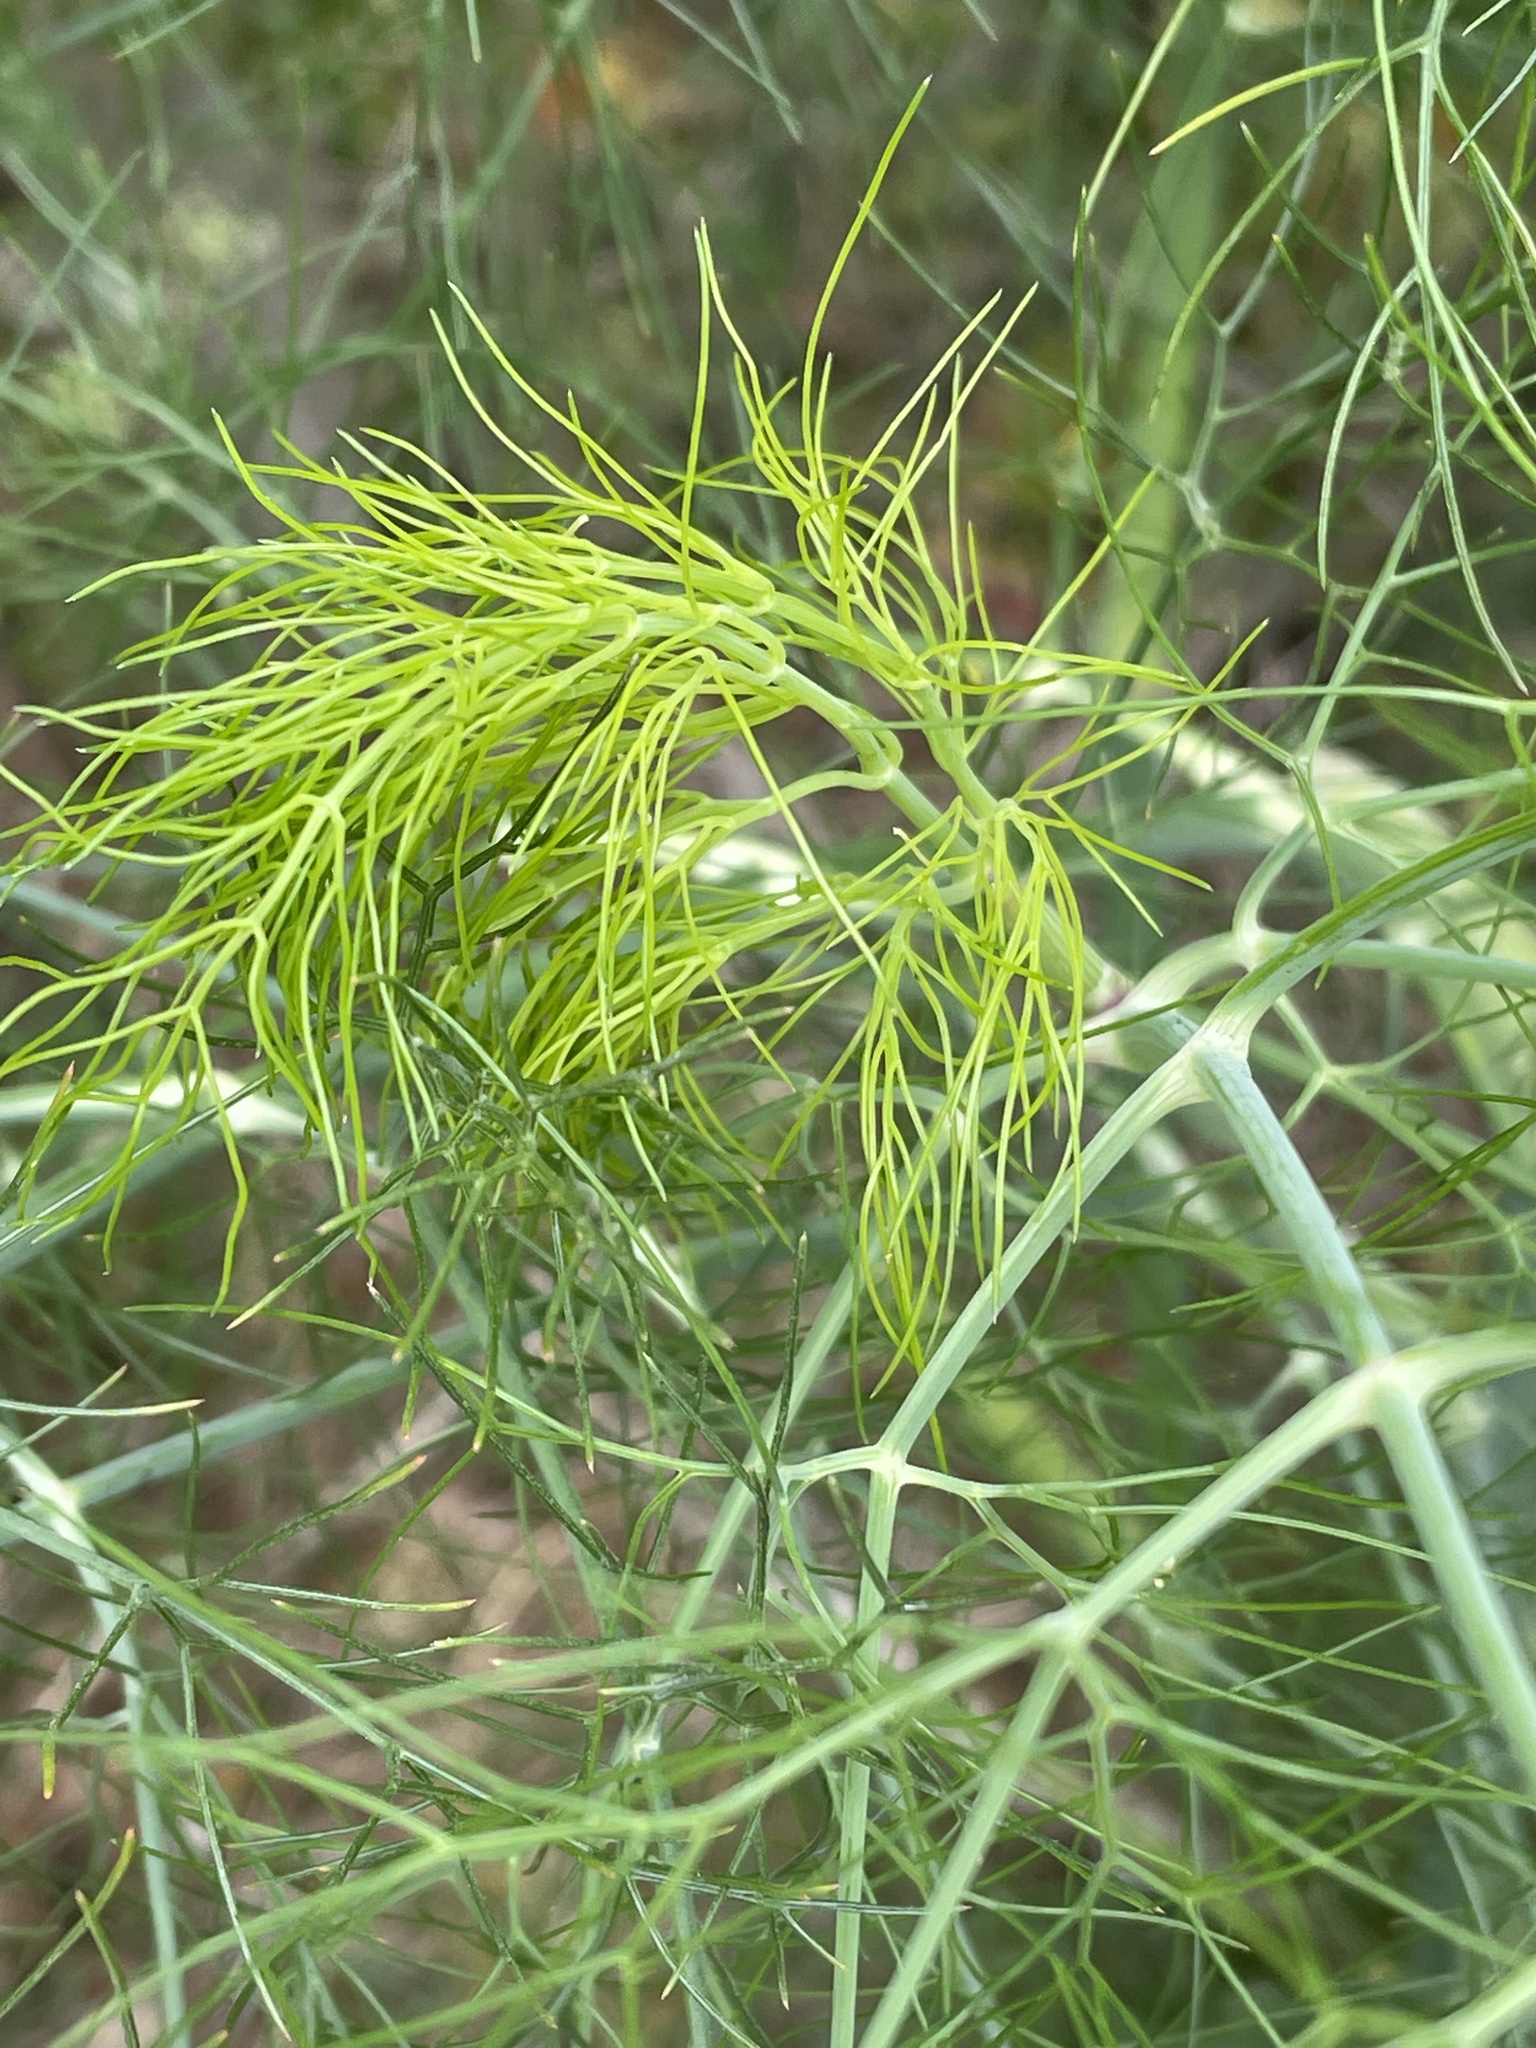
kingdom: Plantae
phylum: Tracheophyta
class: Magnoliopsida
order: Apiales
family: Apiaceae
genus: Foeniculum
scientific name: Foeniculum vulgare
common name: Fennel
